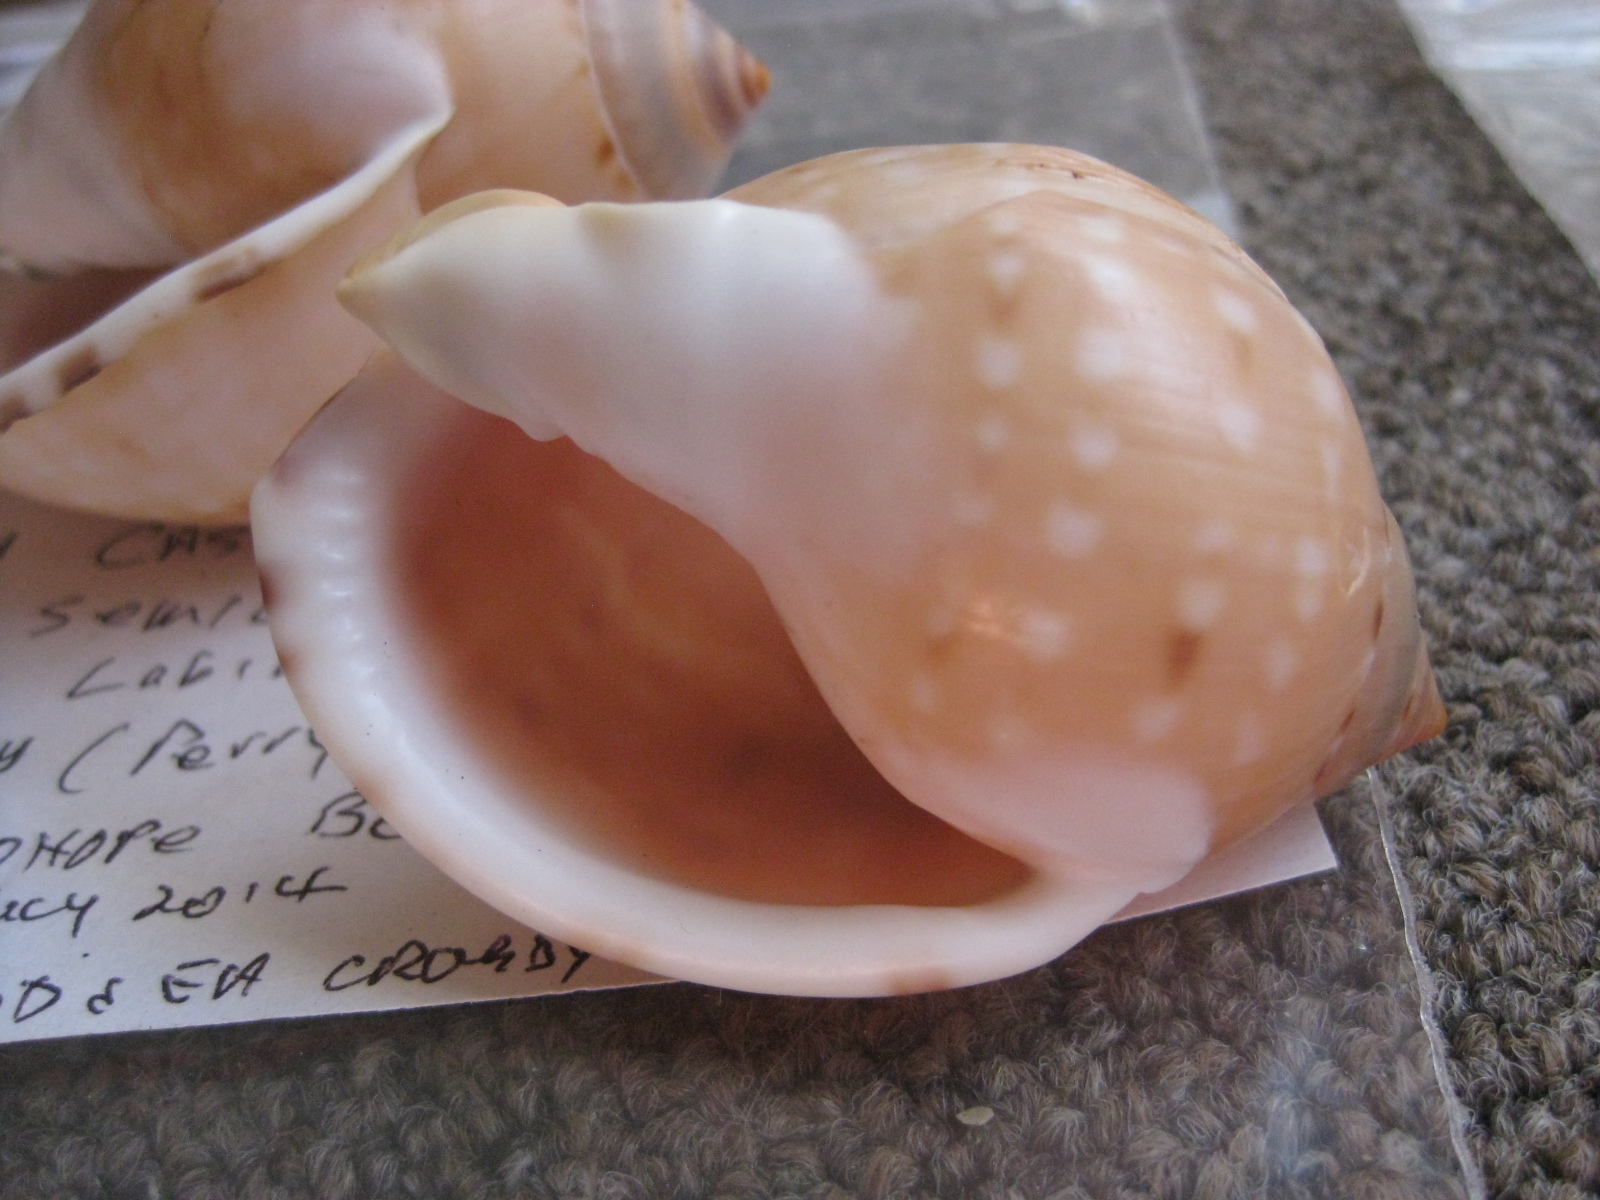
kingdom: Animalia
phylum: Mollusca
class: Gastropoda
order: Littorinimorpha
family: Cassidae
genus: Semicassis
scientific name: Semicassis labiata
